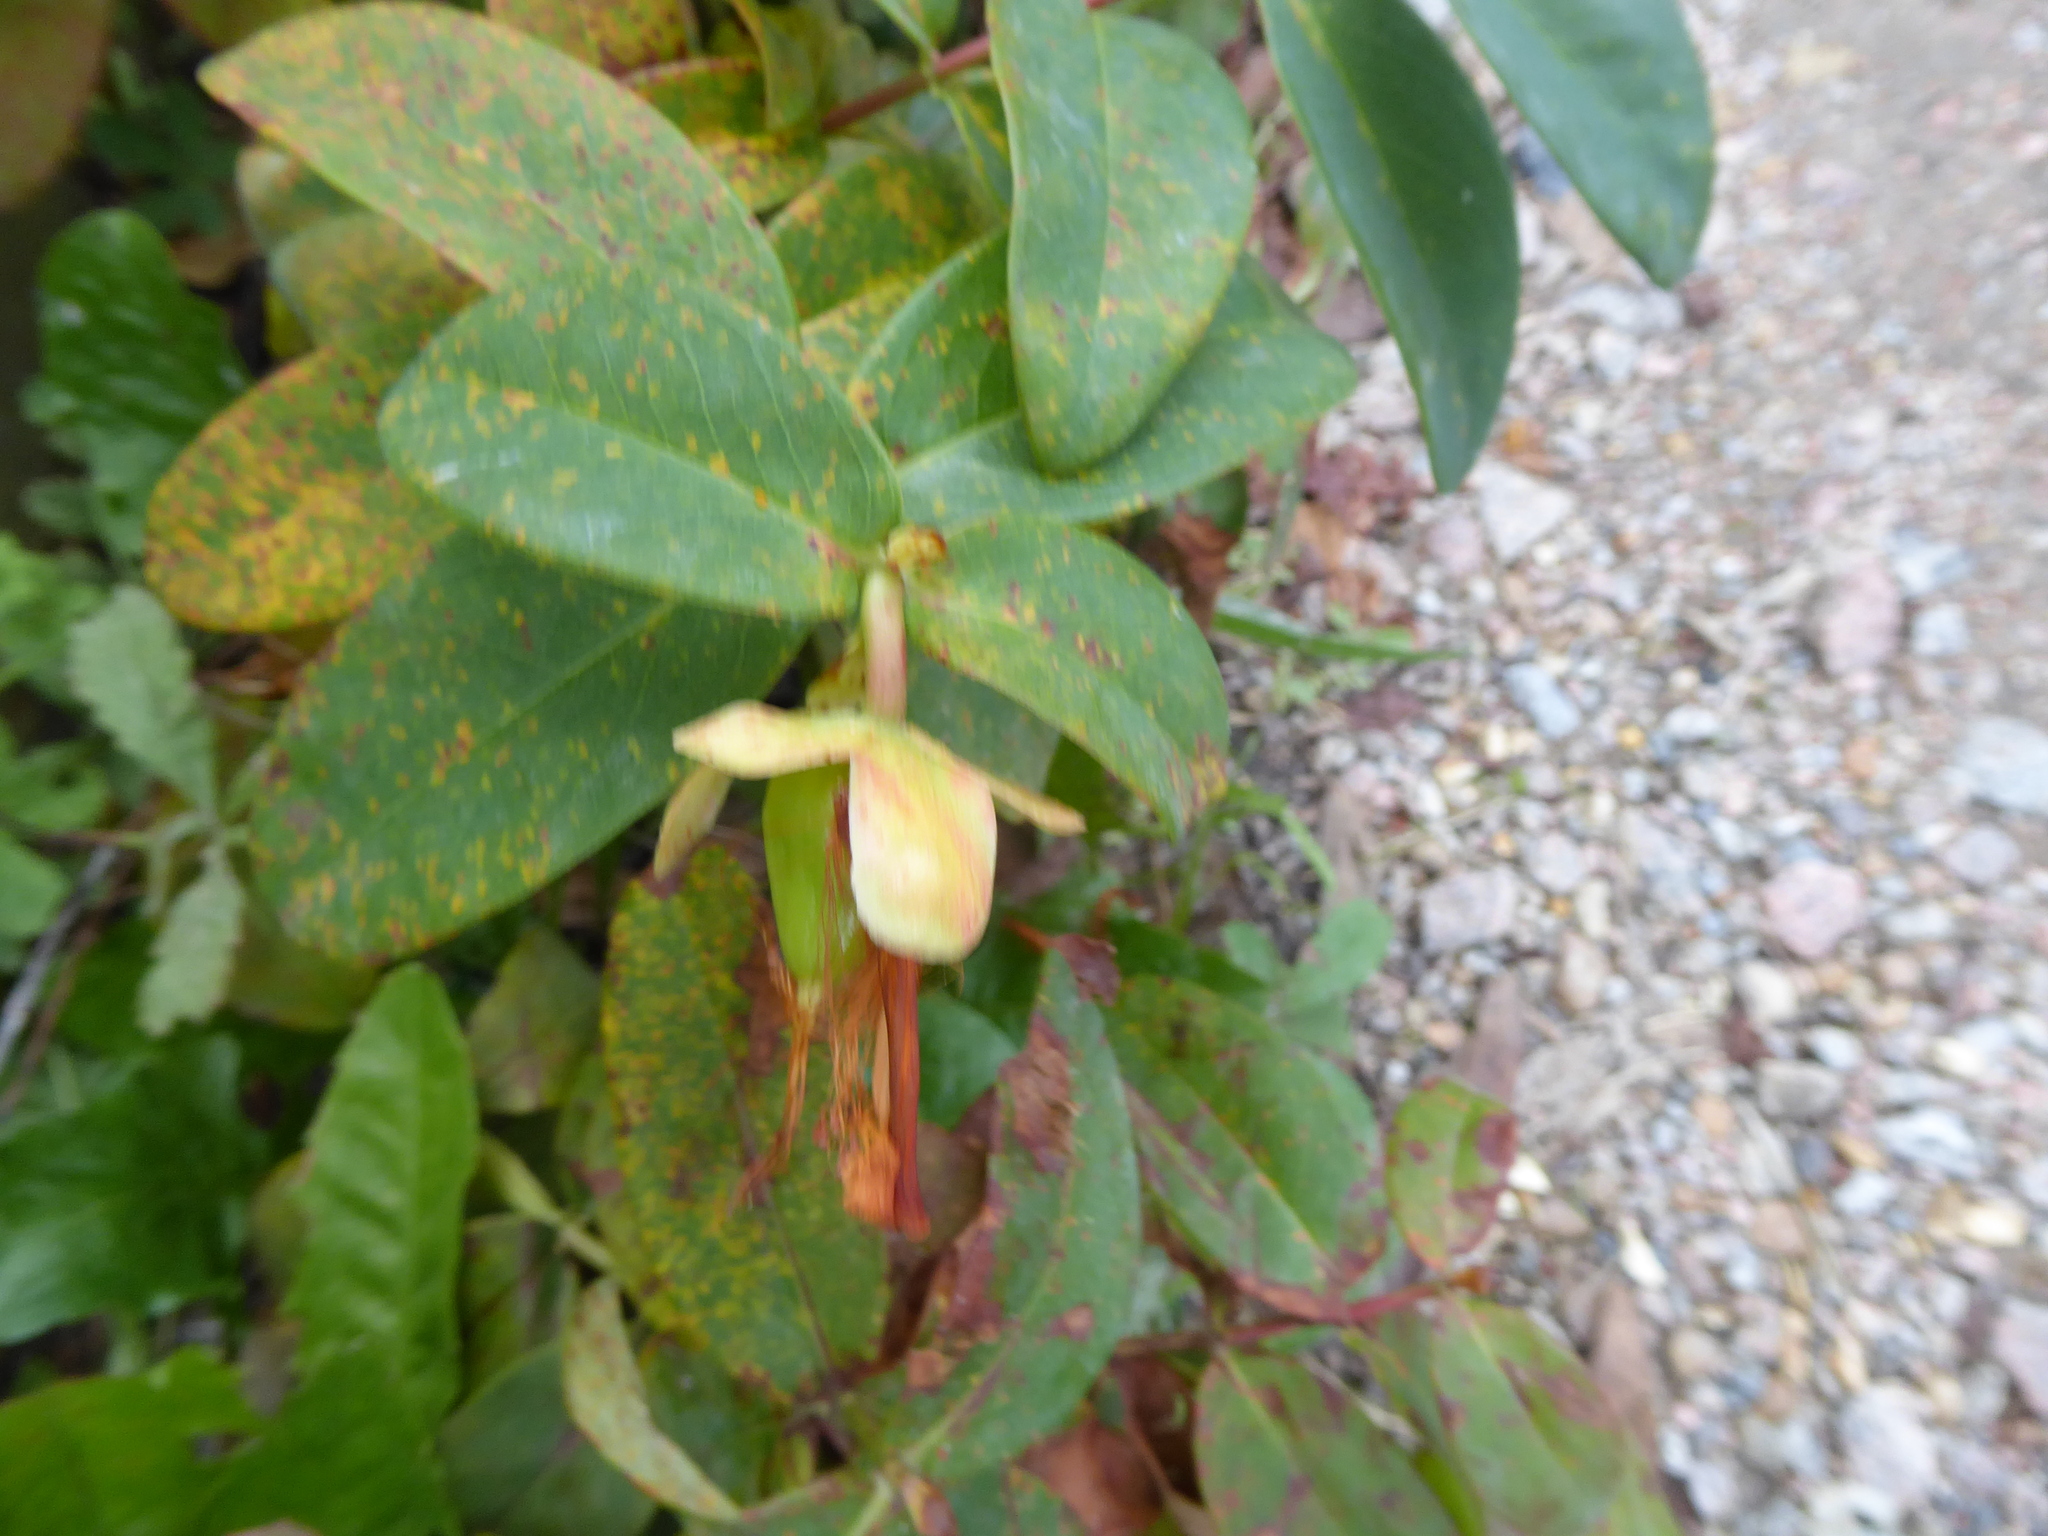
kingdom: Plantae
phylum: Tracheophyta
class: Magnoliopsida
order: Malpighiales
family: Hypericaceae
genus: Hypericum
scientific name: Hypericum calycinum
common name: Rose-of-sharon
